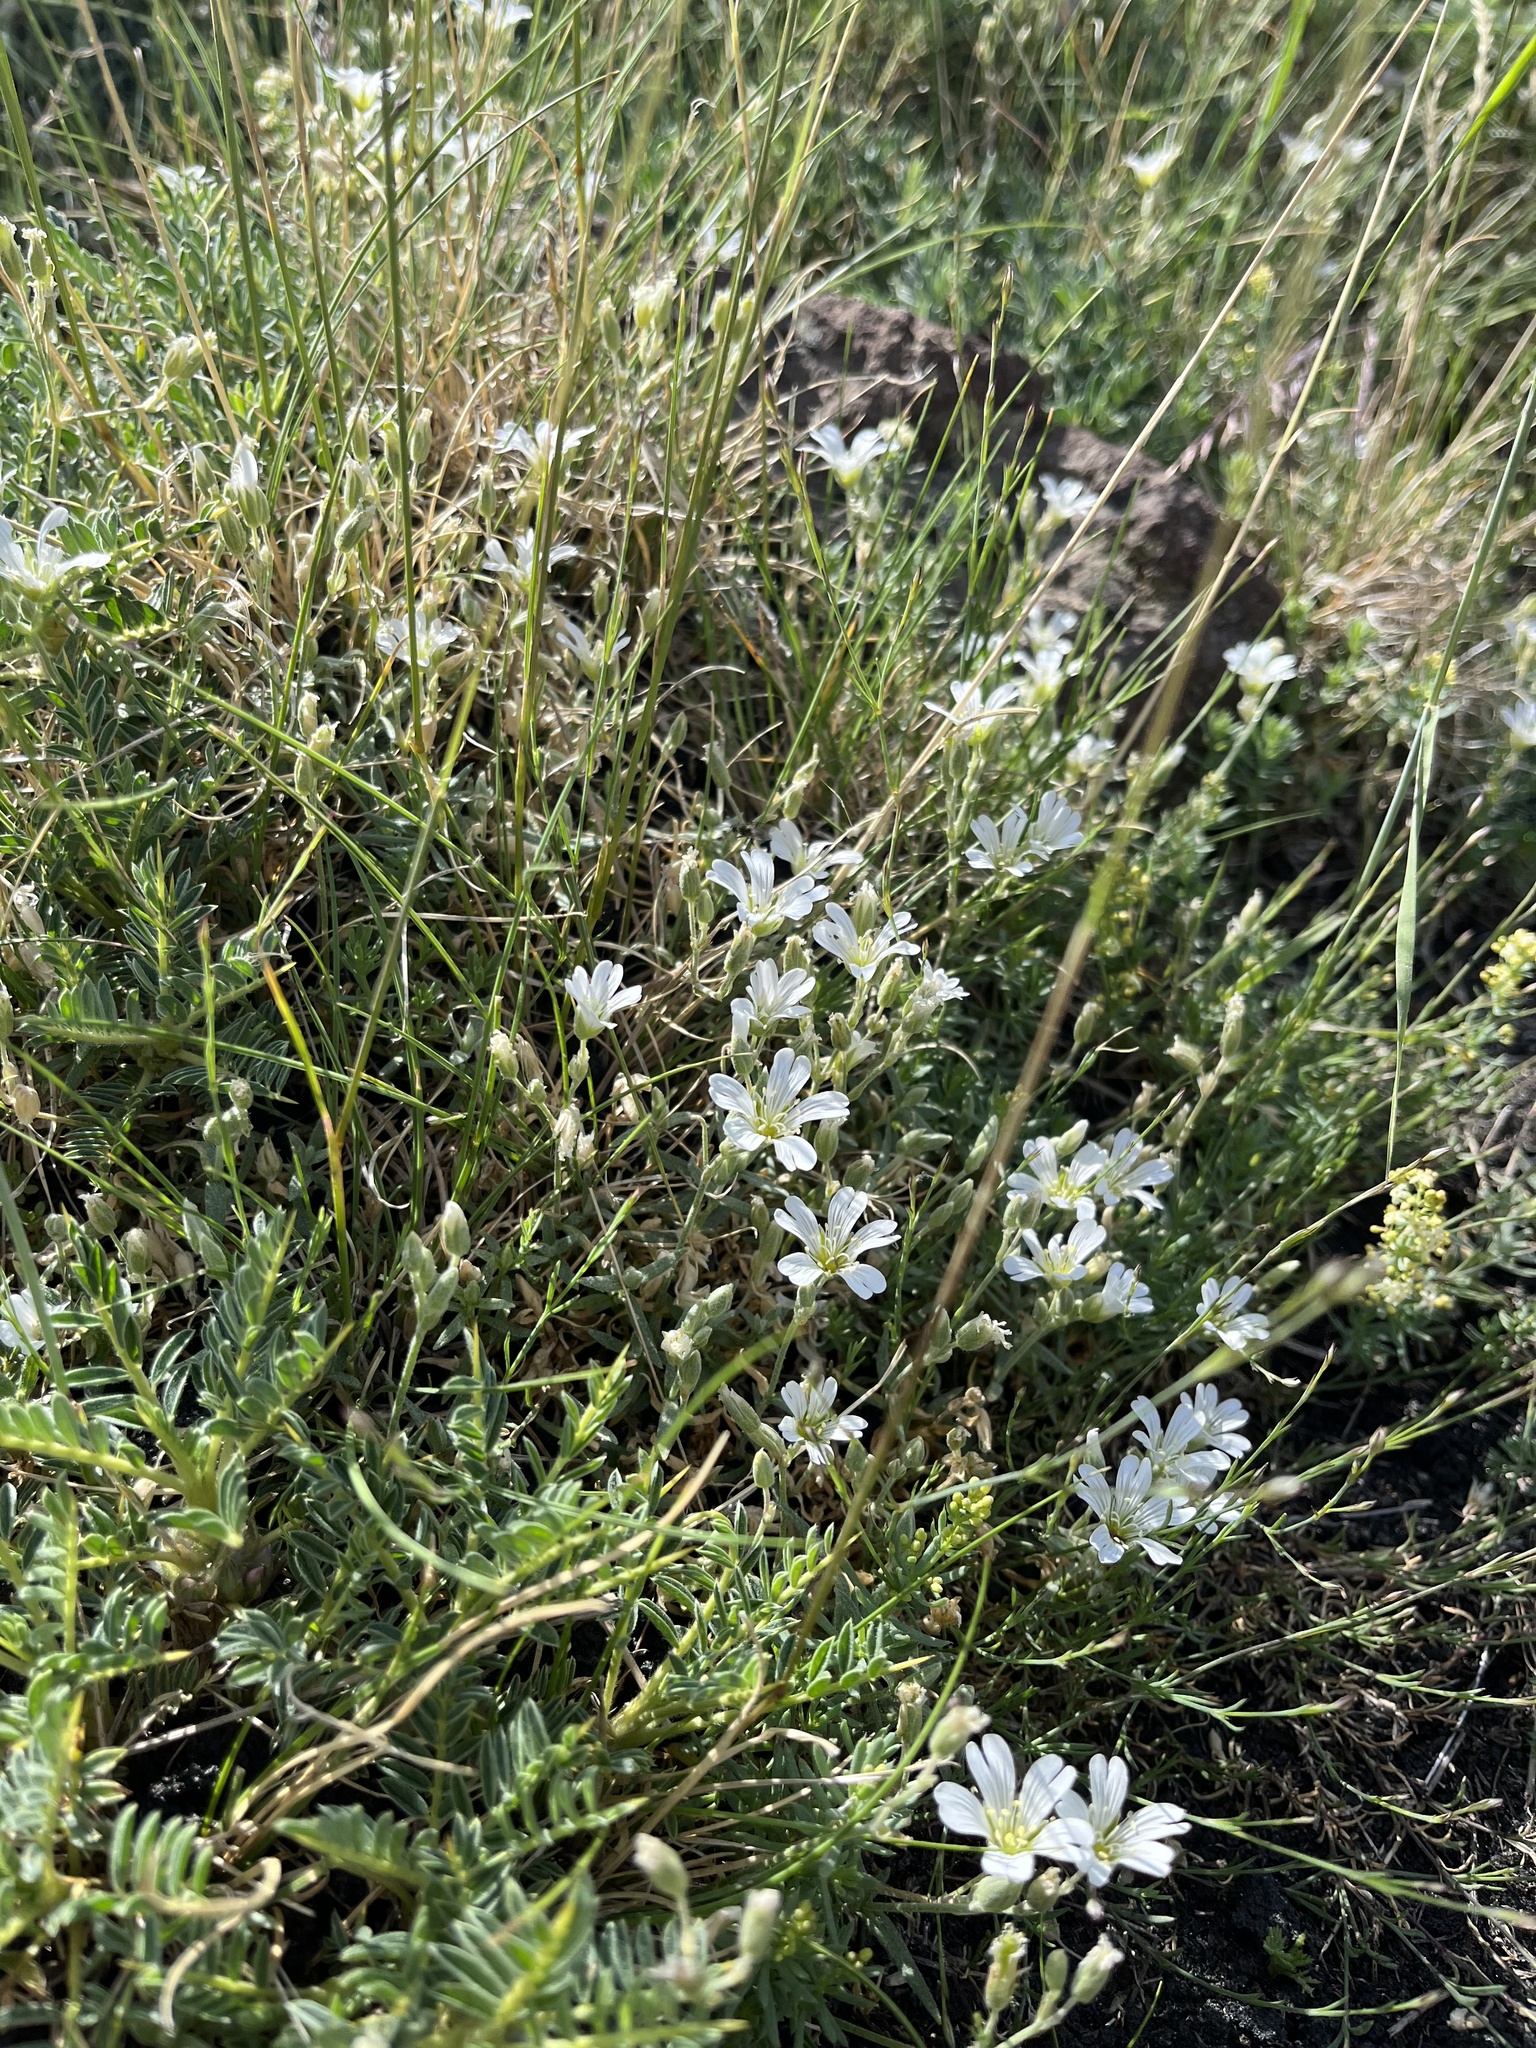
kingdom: Plantae
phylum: Tracheophyta
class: Magnoliopsida
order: Caryophyllales
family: Caryophyllaceae
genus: Cerastium
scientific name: Cerastium tomentosum
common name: Snow-in-summer
